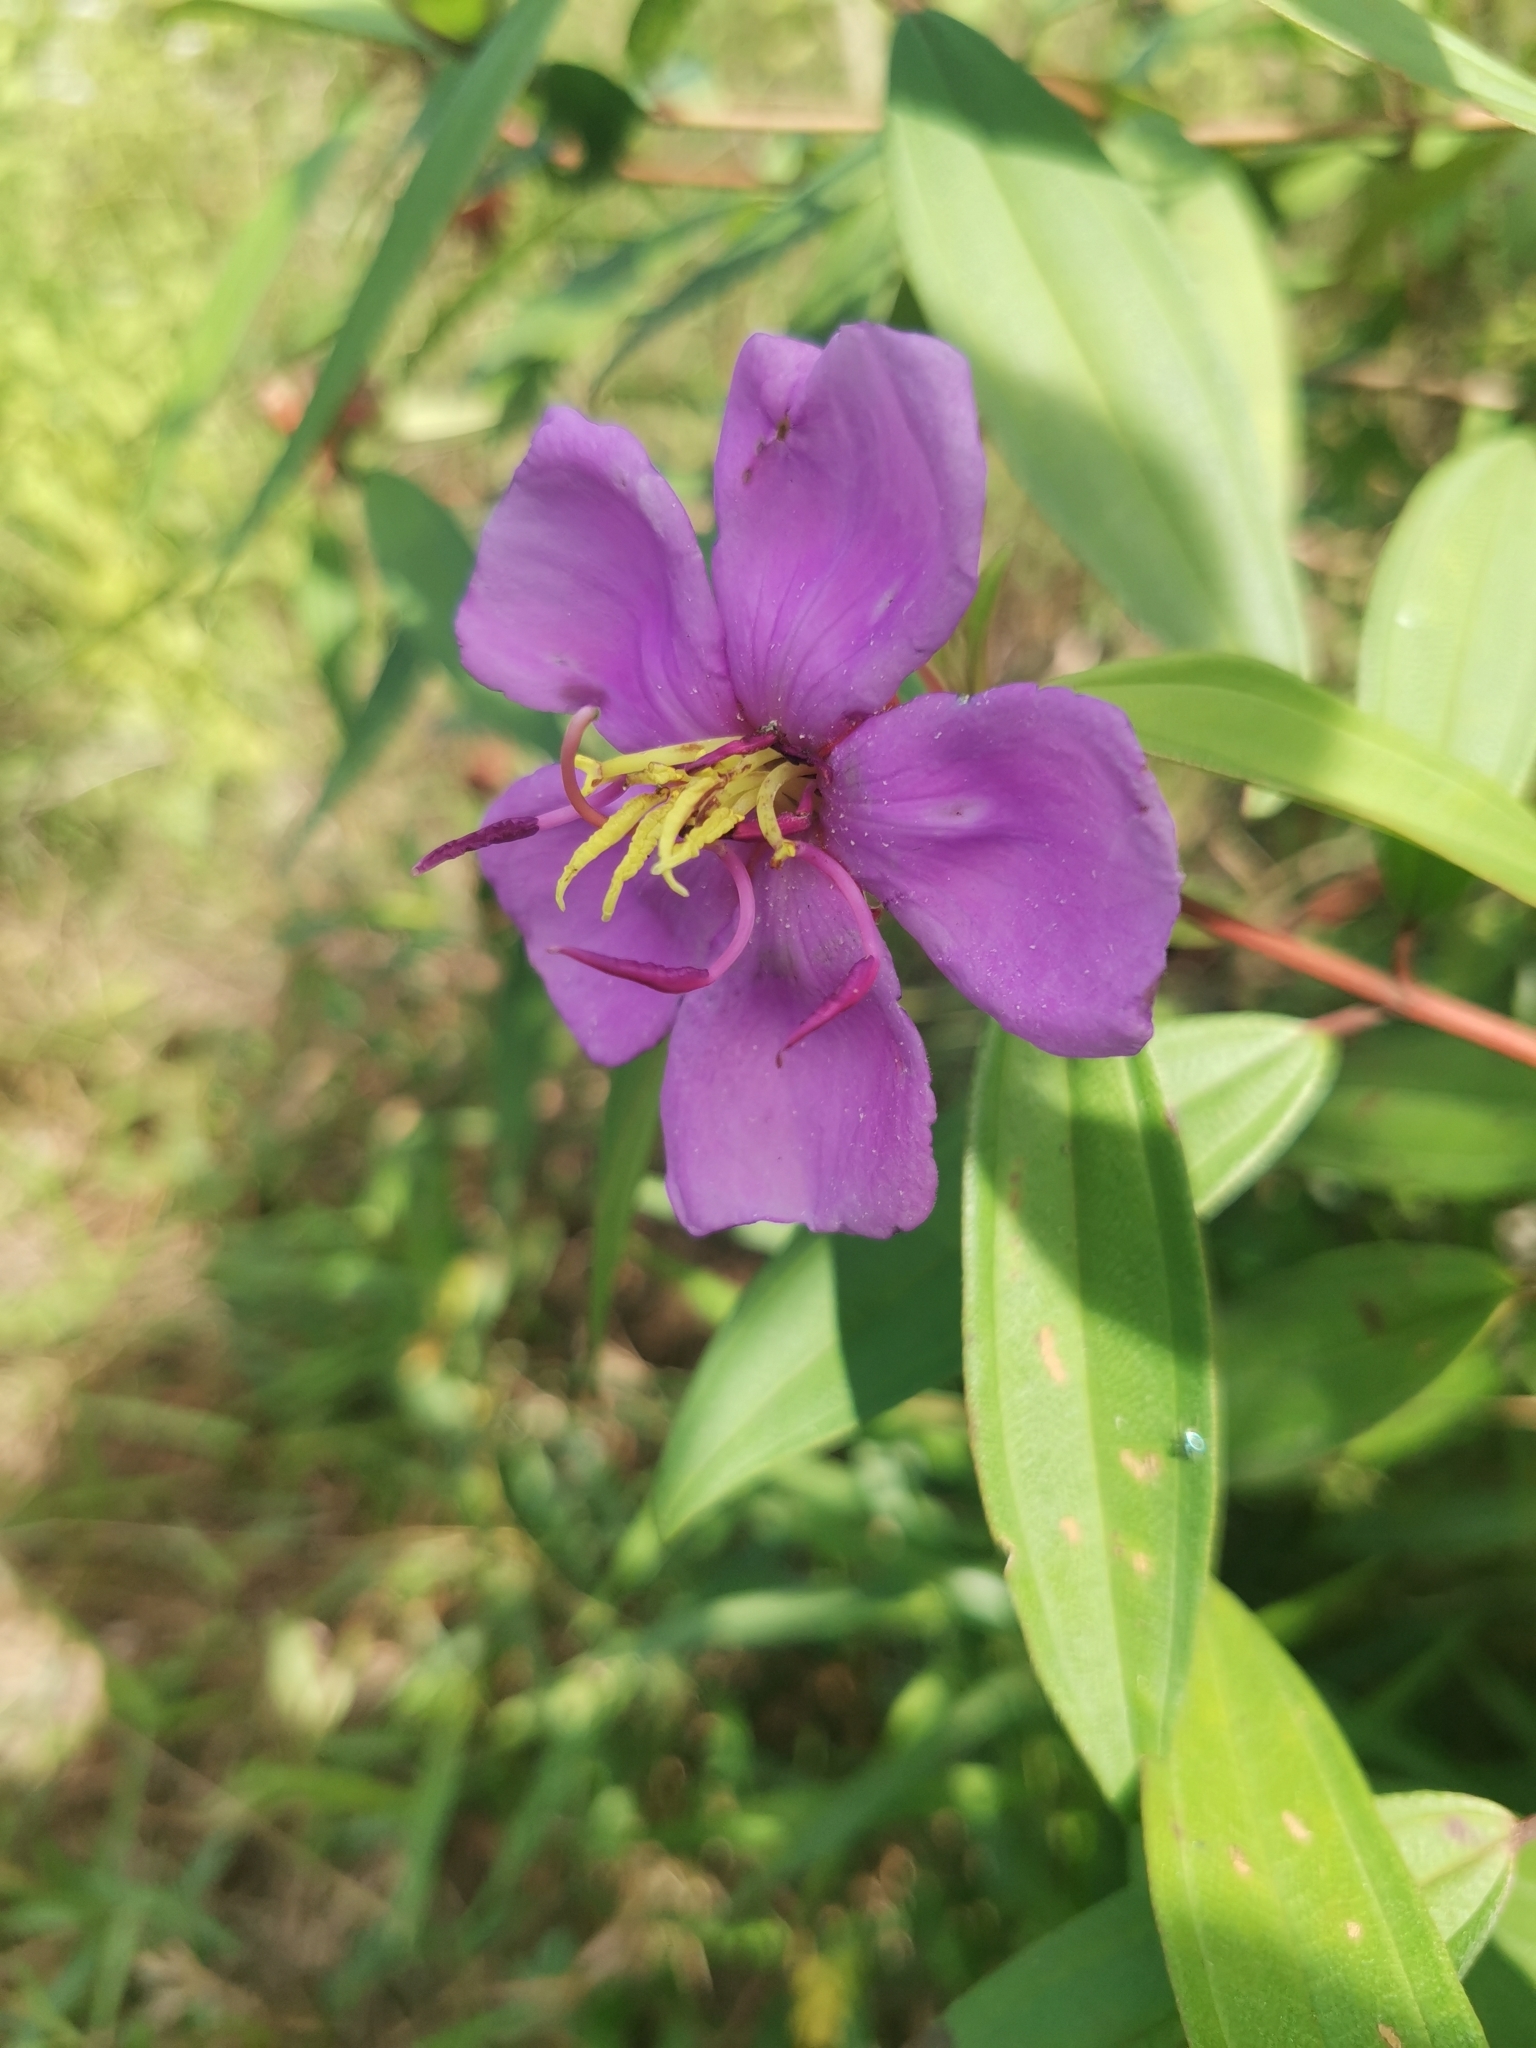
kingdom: Plantae
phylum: Tracheophyta
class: Magnoliopsida
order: Myrtales
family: Melastomataceae
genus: Melastoma
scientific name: Melastoma malabathricum
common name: Indian-rhododendron
